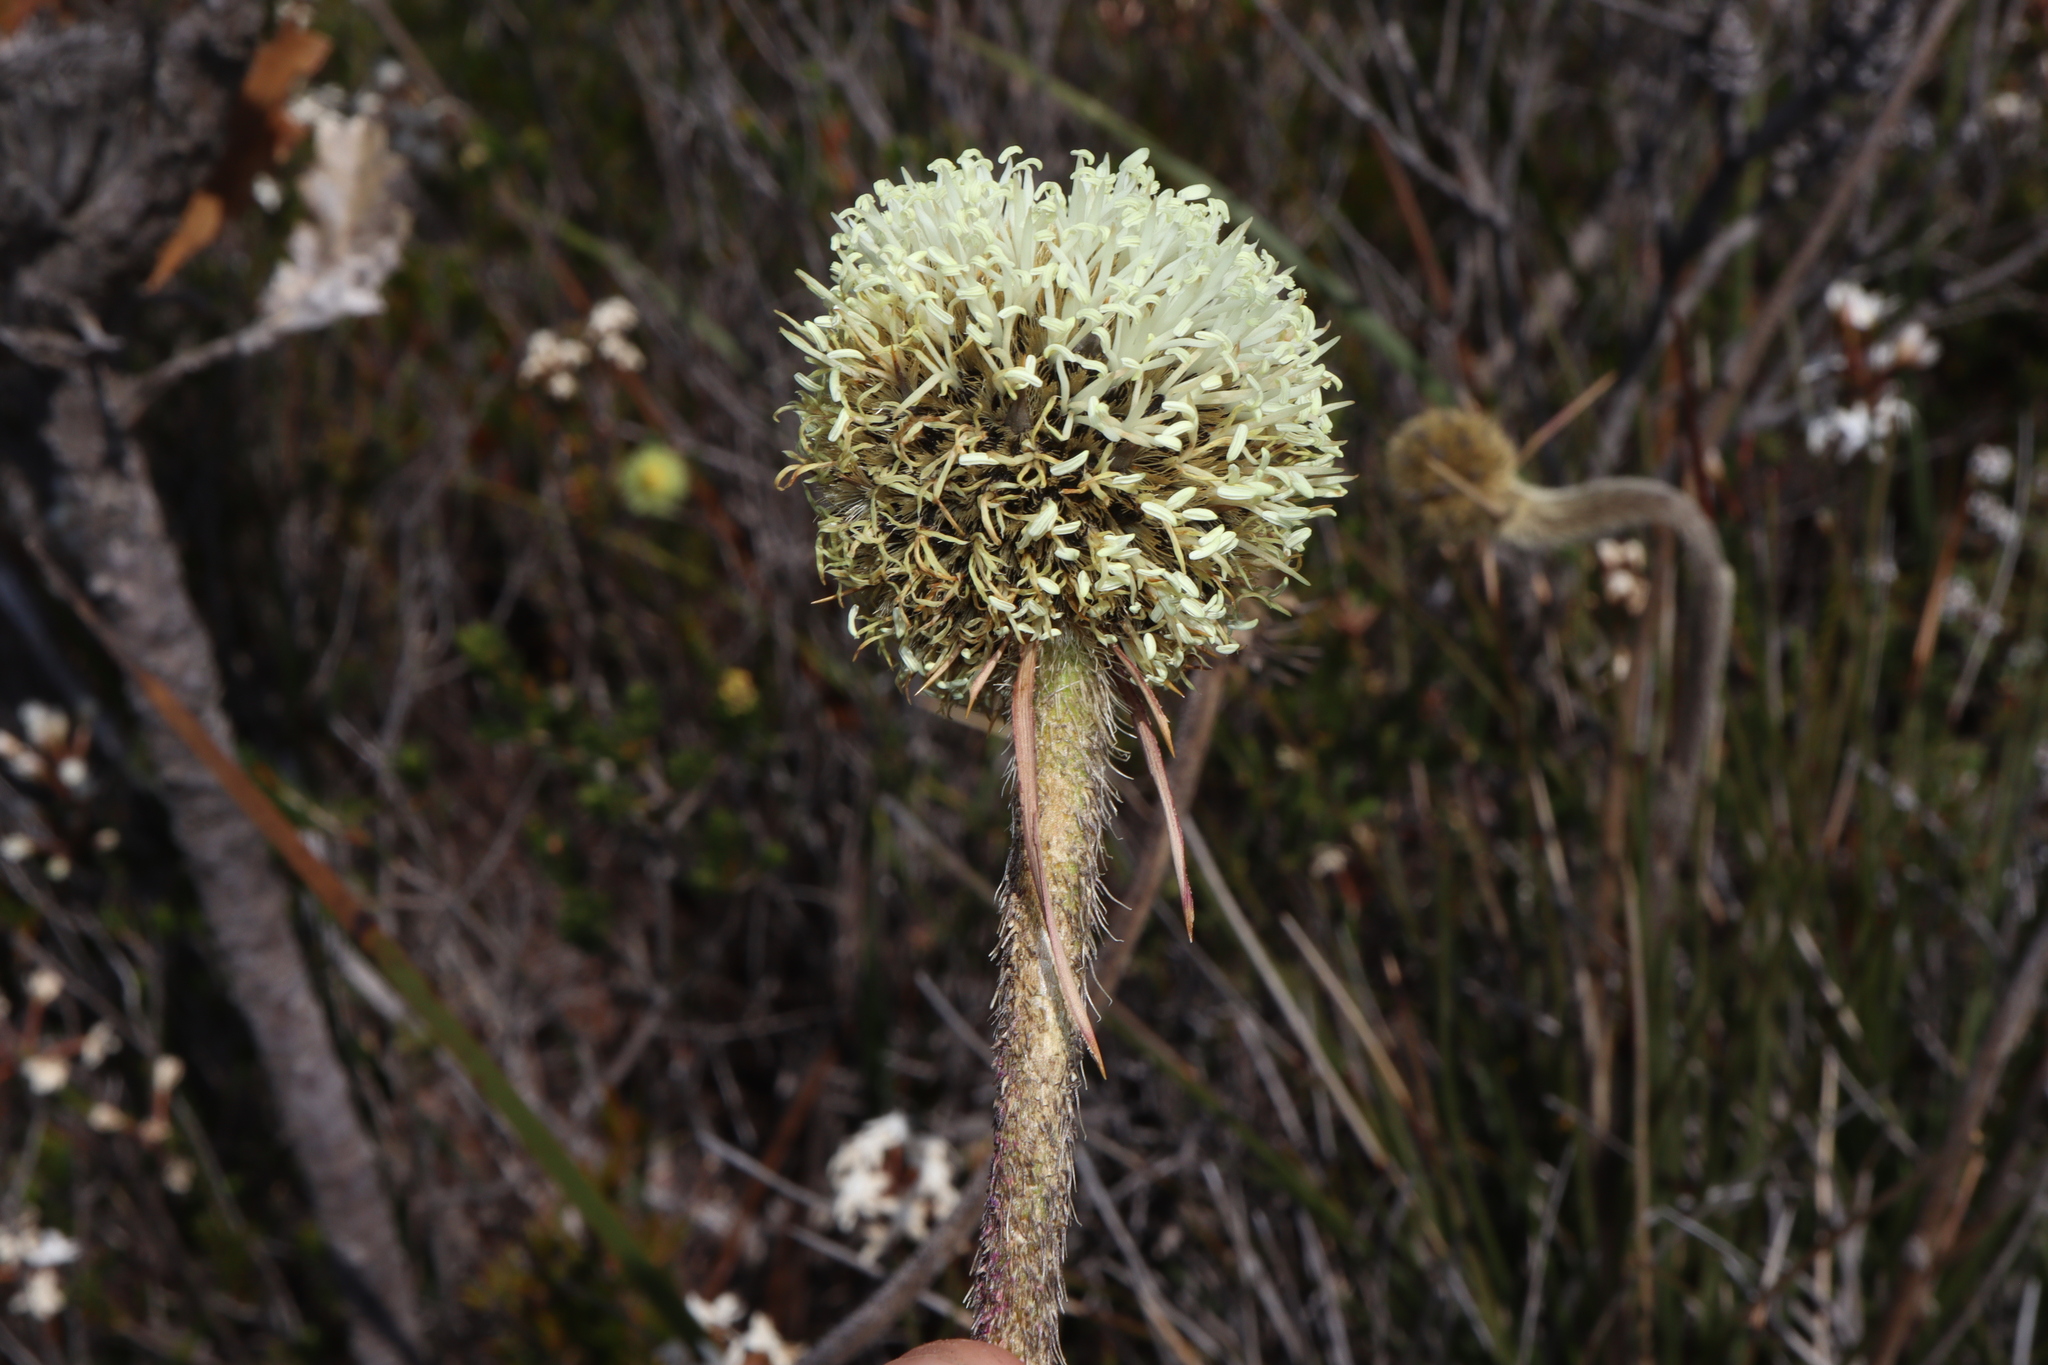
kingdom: Plantae
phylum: Tracheophyta
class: Liliopsida
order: Arecales
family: Dasypogonaceae
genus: Dasypogon
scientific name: Dasypogon bromeliifolius
